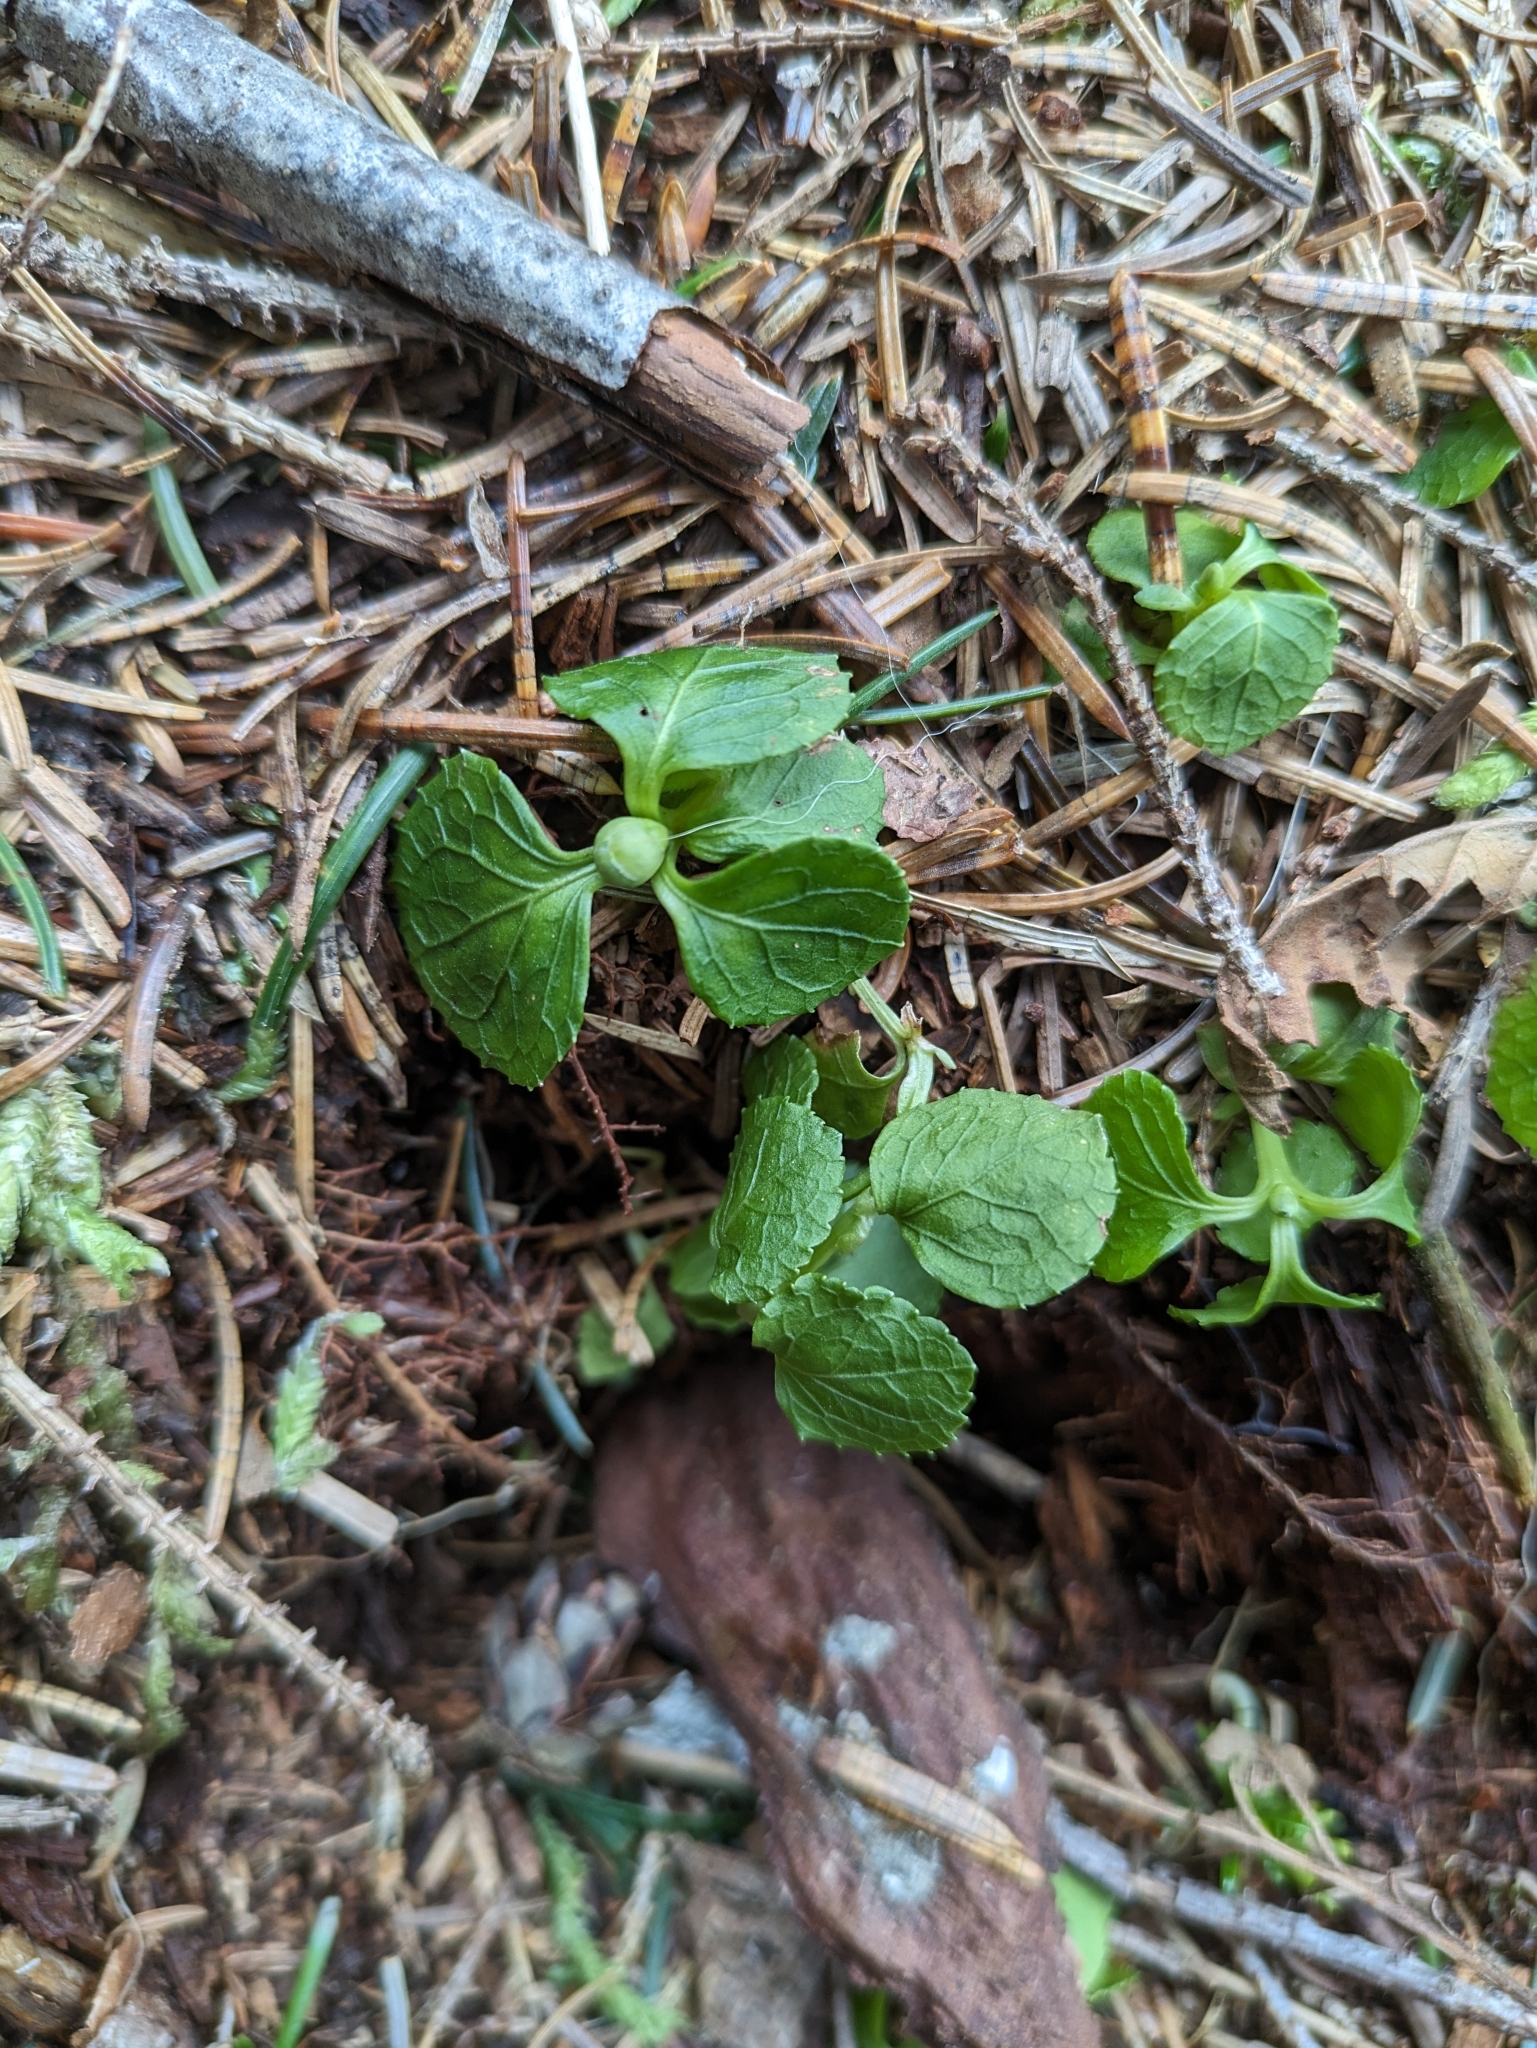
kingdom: Plantae
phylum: Tracheophyta
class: Magnoliopsida
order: Ericales
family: Ericaceae
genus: Moneses
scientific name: Moneses uniflora
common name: One-flowered wintergreen
